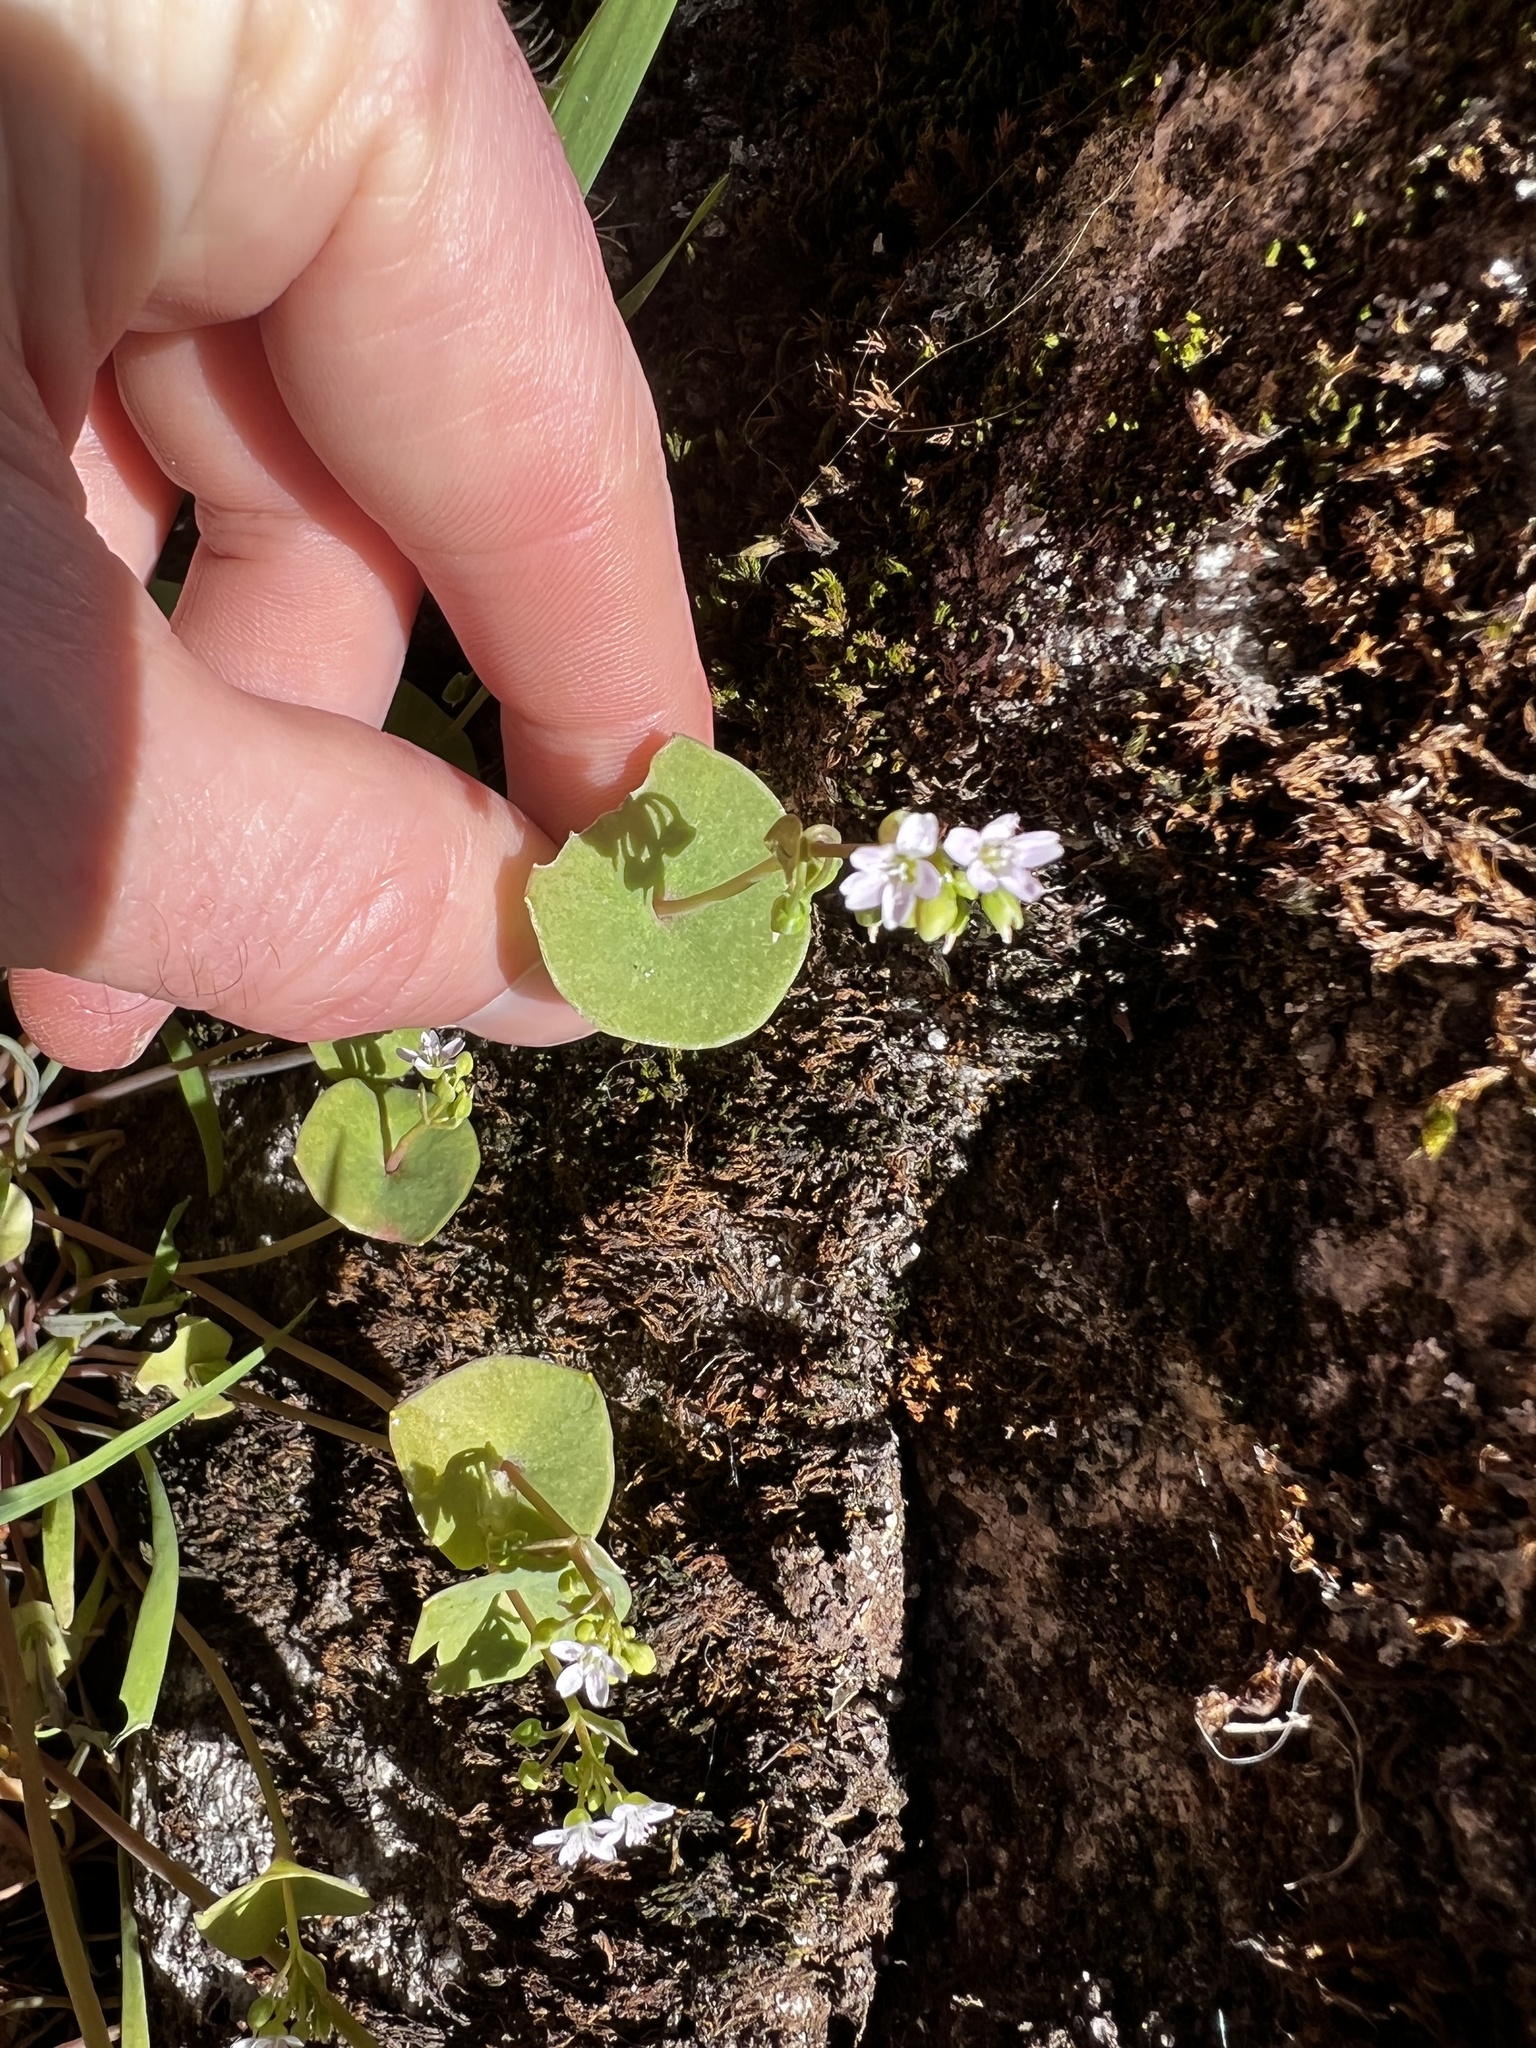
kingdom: Plantae
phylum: Tracheophyta
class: Magnoliopsida
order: Caryophyllales
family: Montiaceae
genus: Claytonia
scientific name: Claytonia parviflora
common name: Indian-lettuce
